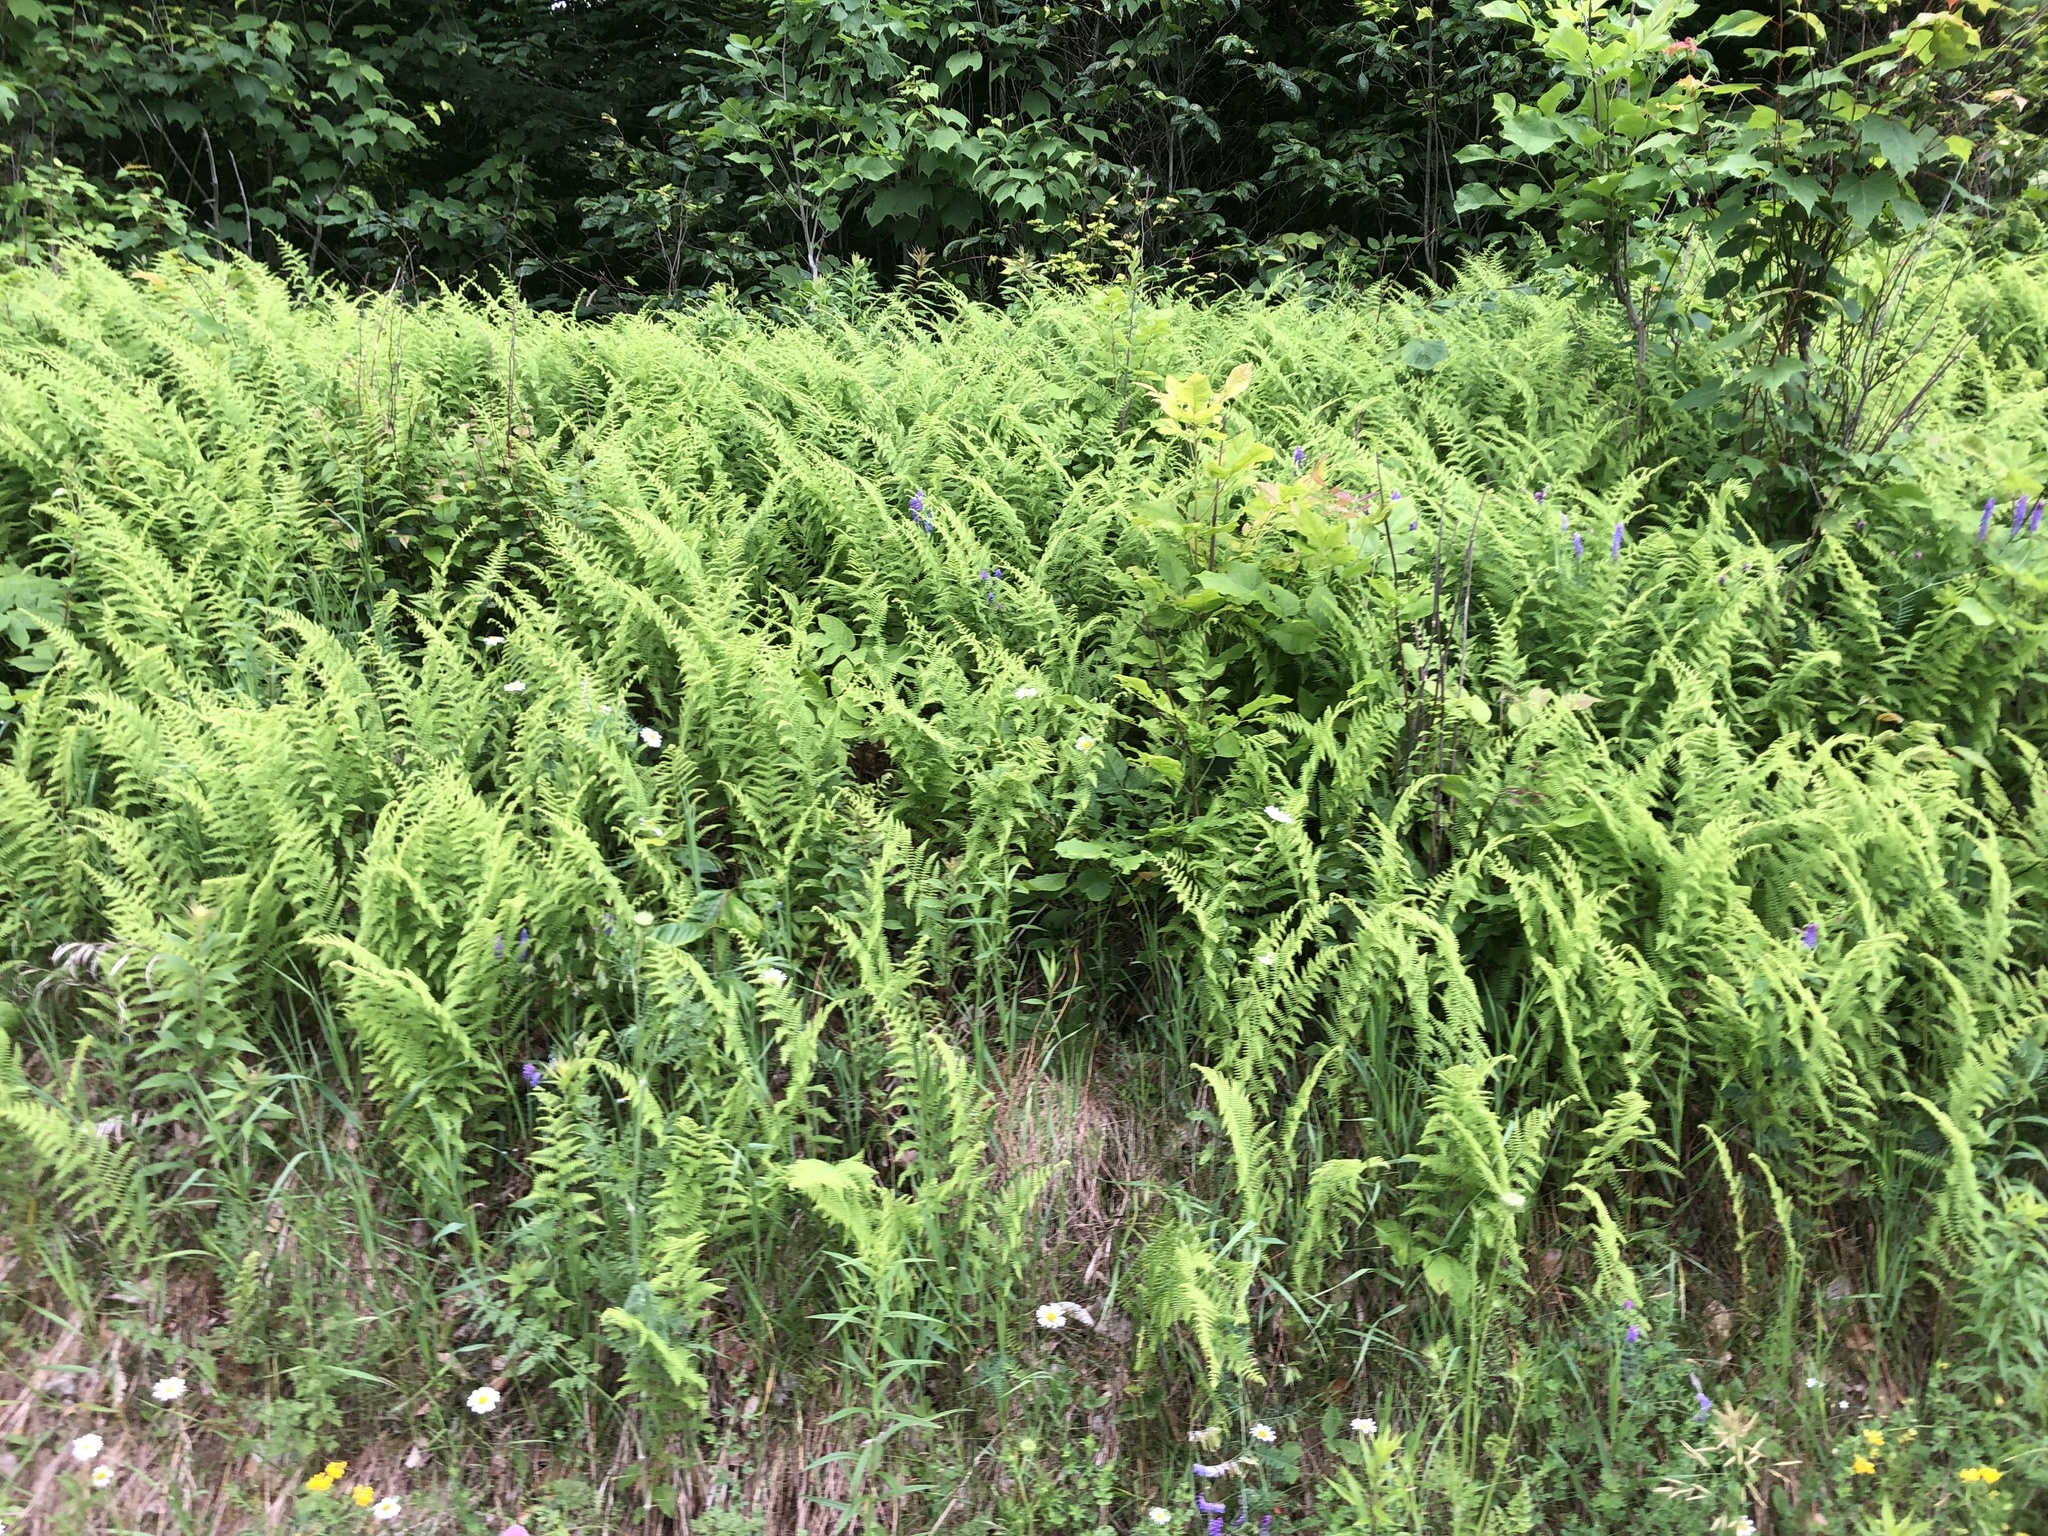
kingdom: Plantae
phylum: Tracheophyta
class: Polypodiopsida
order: Polypodiales
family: Thelypteridaceae
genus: Amauropelta
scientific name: Amauropelta noveboracensis
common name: New york fern
